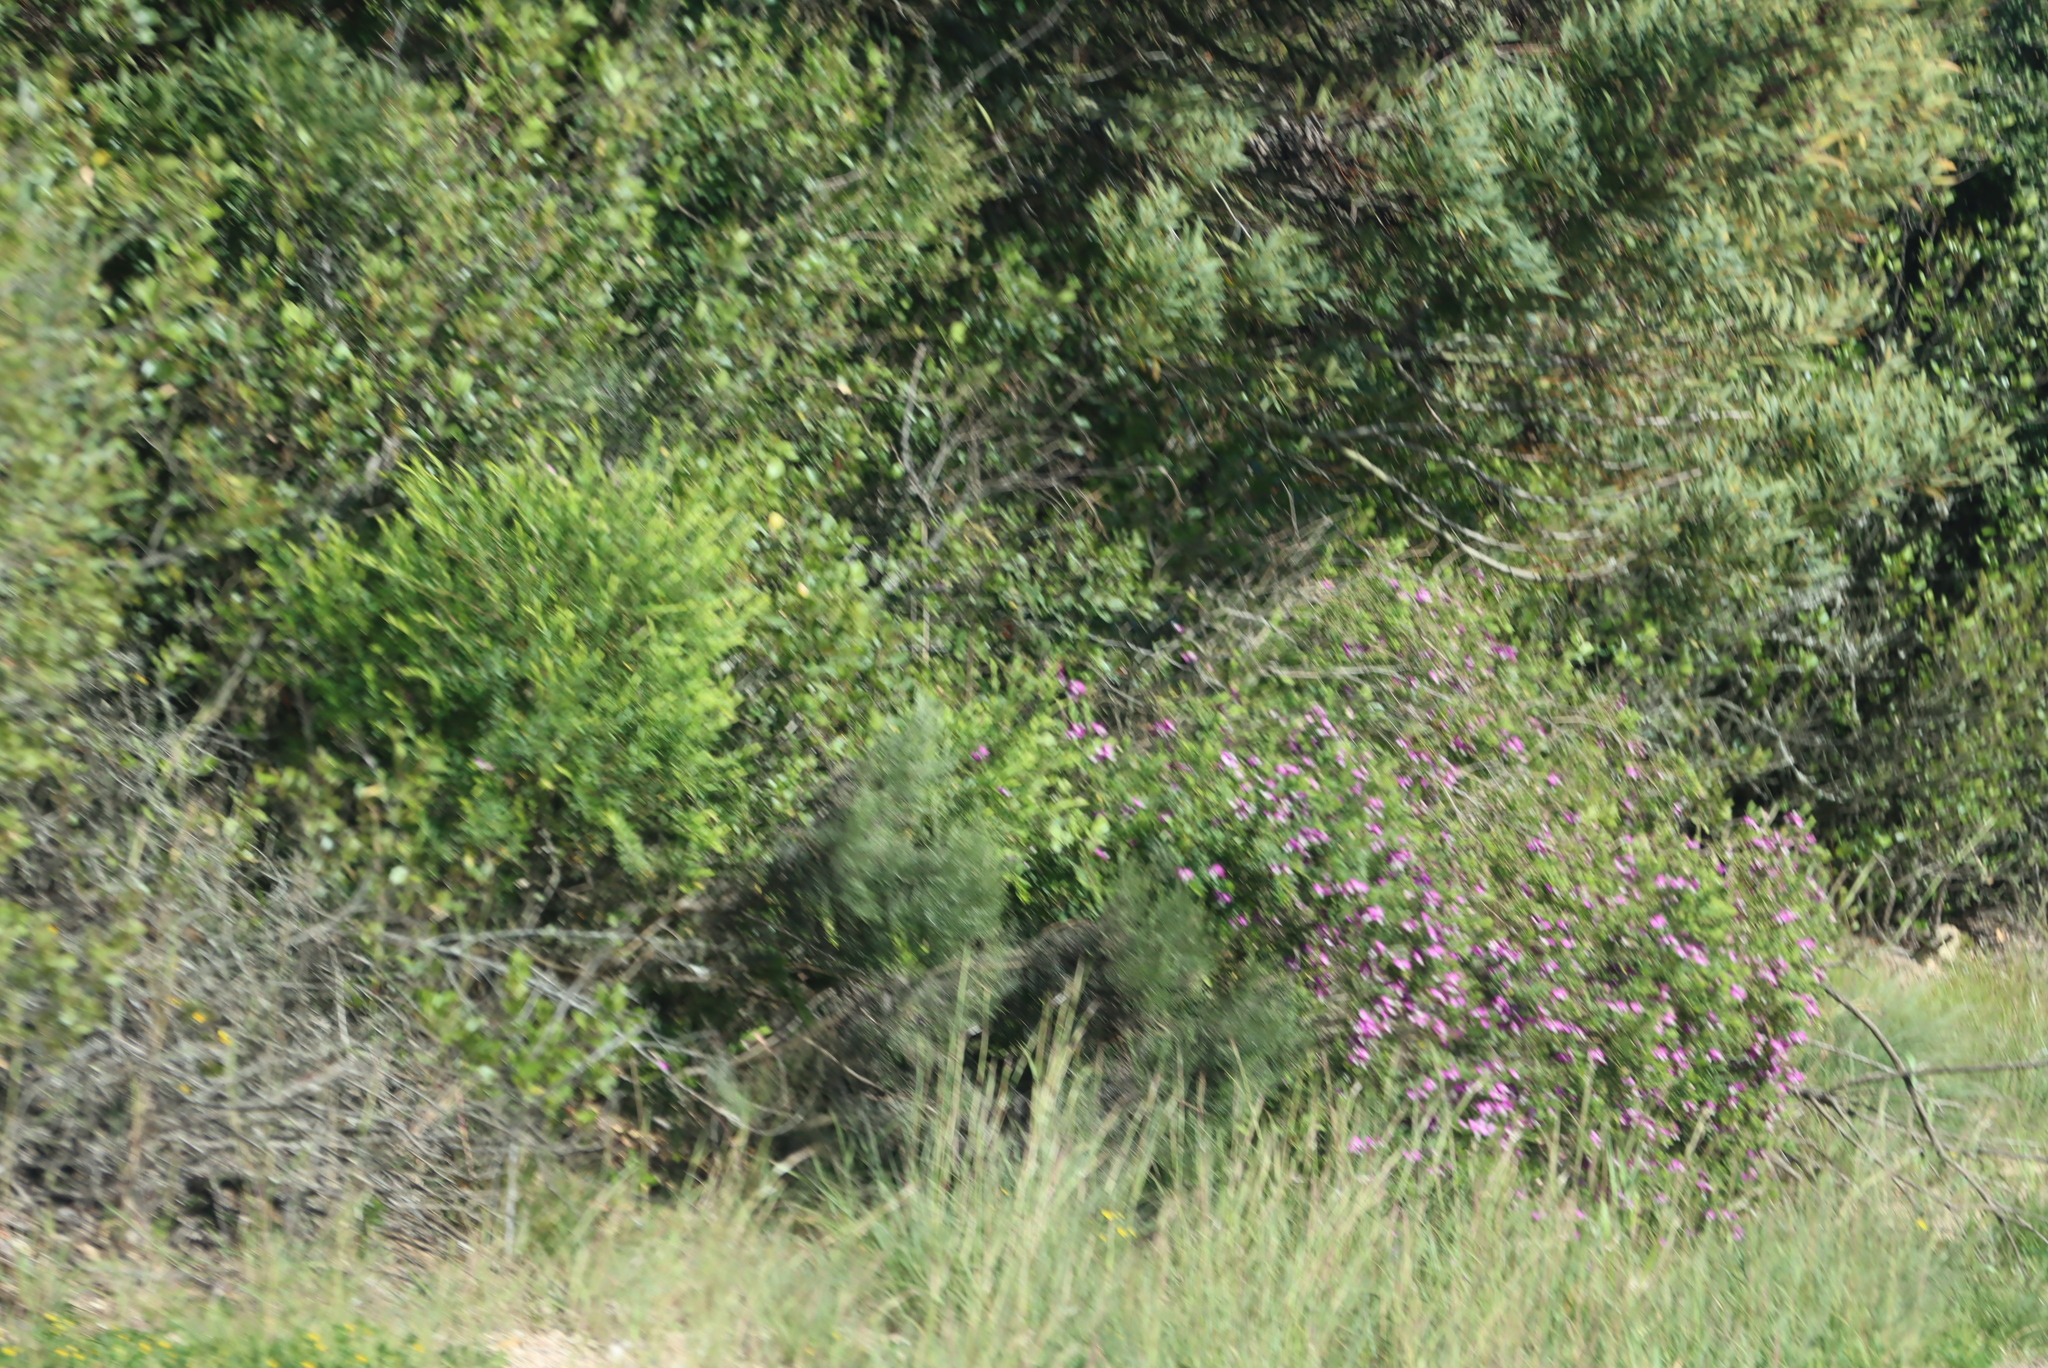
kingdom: Plantae
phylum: Tracheophyta
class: Magnoliopsida
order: Fabales
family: Polygalaceae
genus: Polygala
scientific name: Polygala myrtifolia
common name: Myrtle-leaf milkwort
